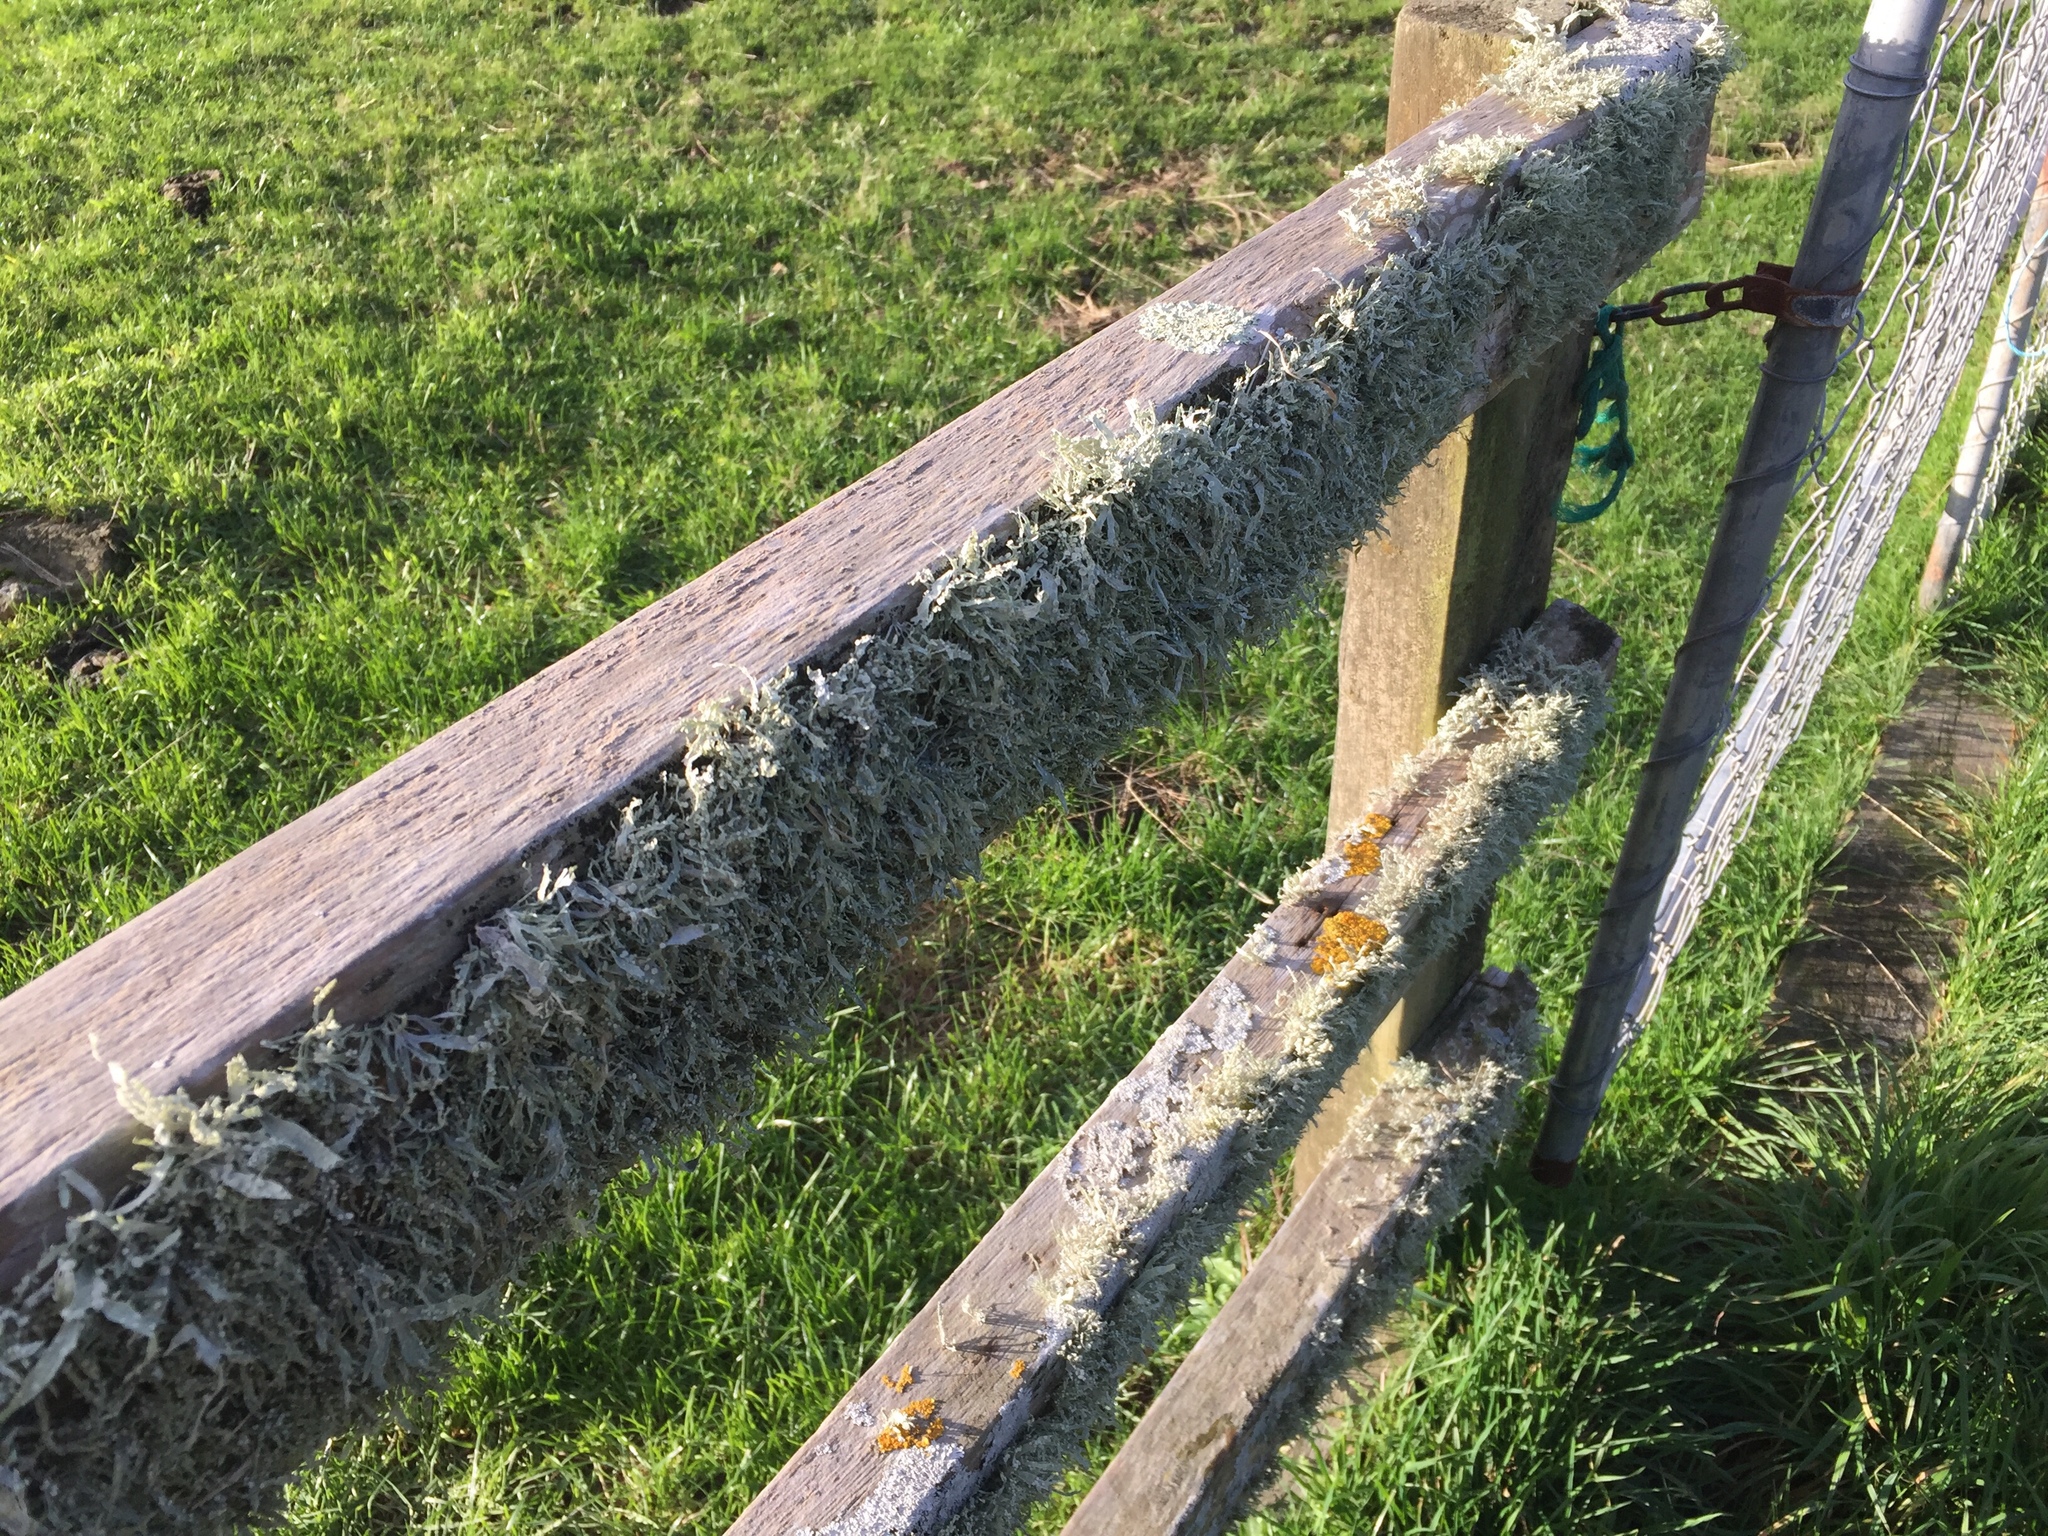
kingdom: Fungi
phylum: Ascomycota
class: Lecanoromycetes
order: Lecanorales
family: Ramalinaceae
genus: Ramalina
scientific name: Ramalina celastri
